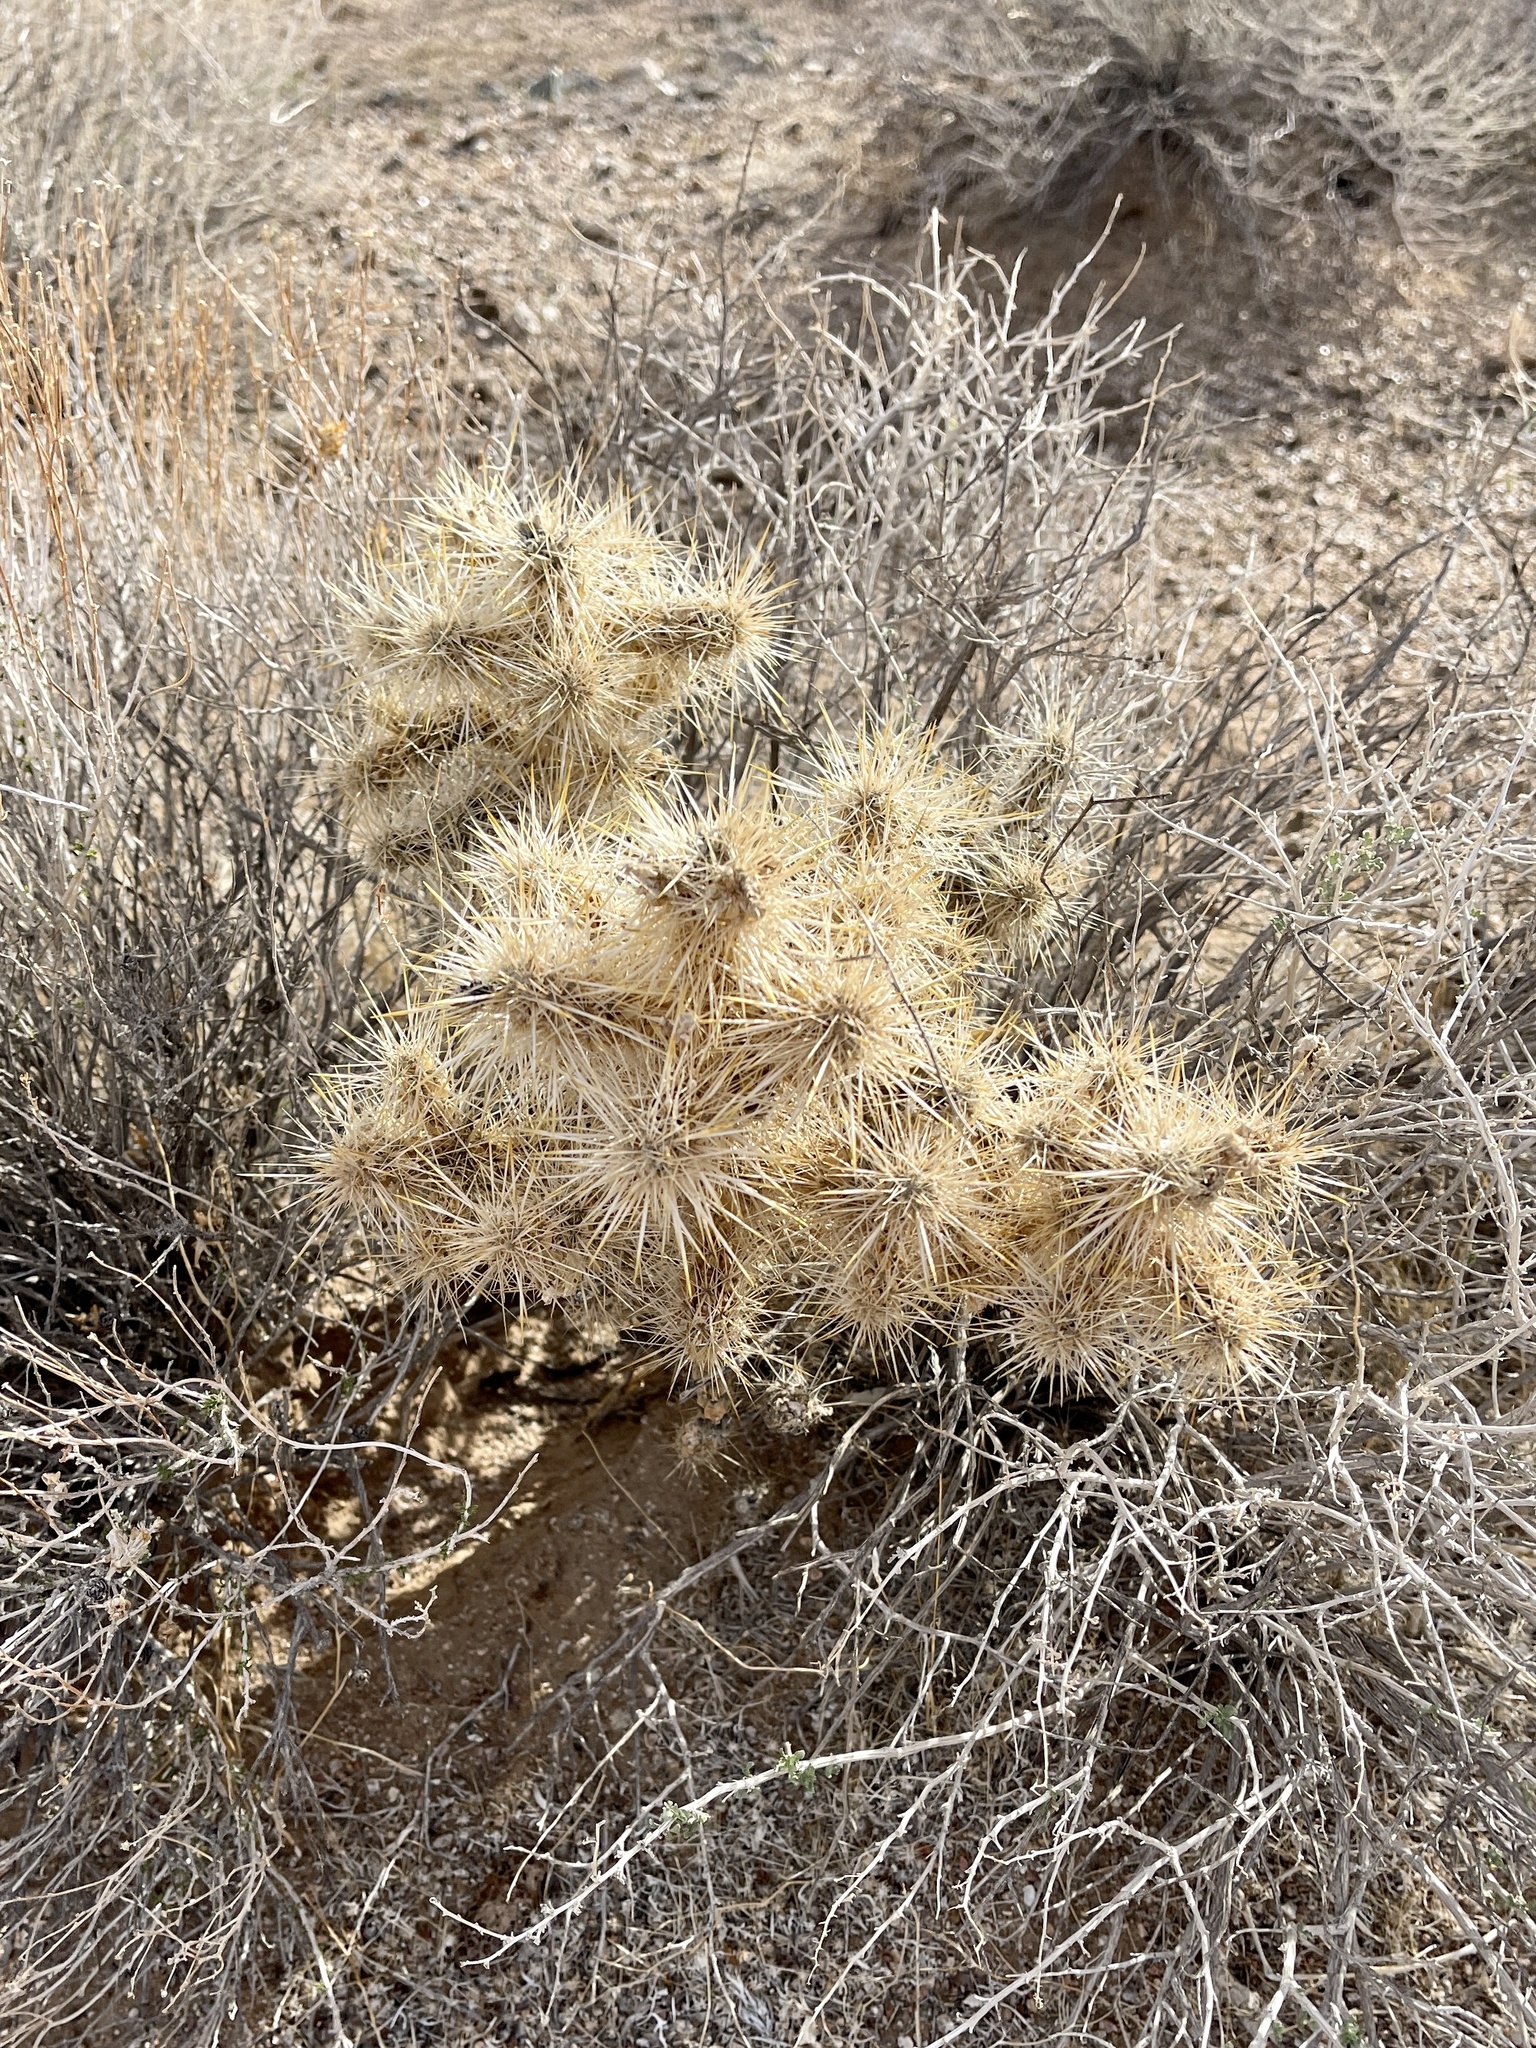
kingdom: Plantae
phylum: Tracheophyta
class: Magnoliopsida
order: Caryophyllales
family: Cactaceae
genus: Cylindropuntia
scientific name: Cylindropuntia echinocarpa
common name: Ground cholla
